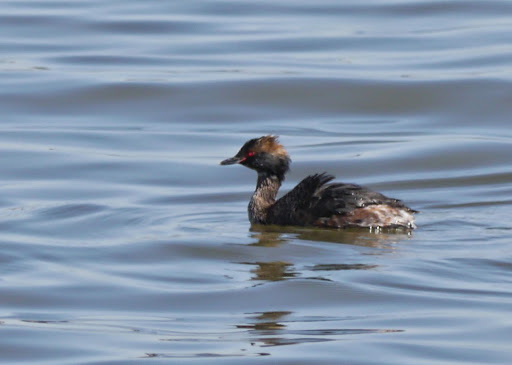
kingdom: Animalia
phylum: Chordata
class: Aves
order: Podicipediformes
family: Podicipedidae
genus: Podiceps
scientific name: Podiceps auritus
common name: Horned grebe
